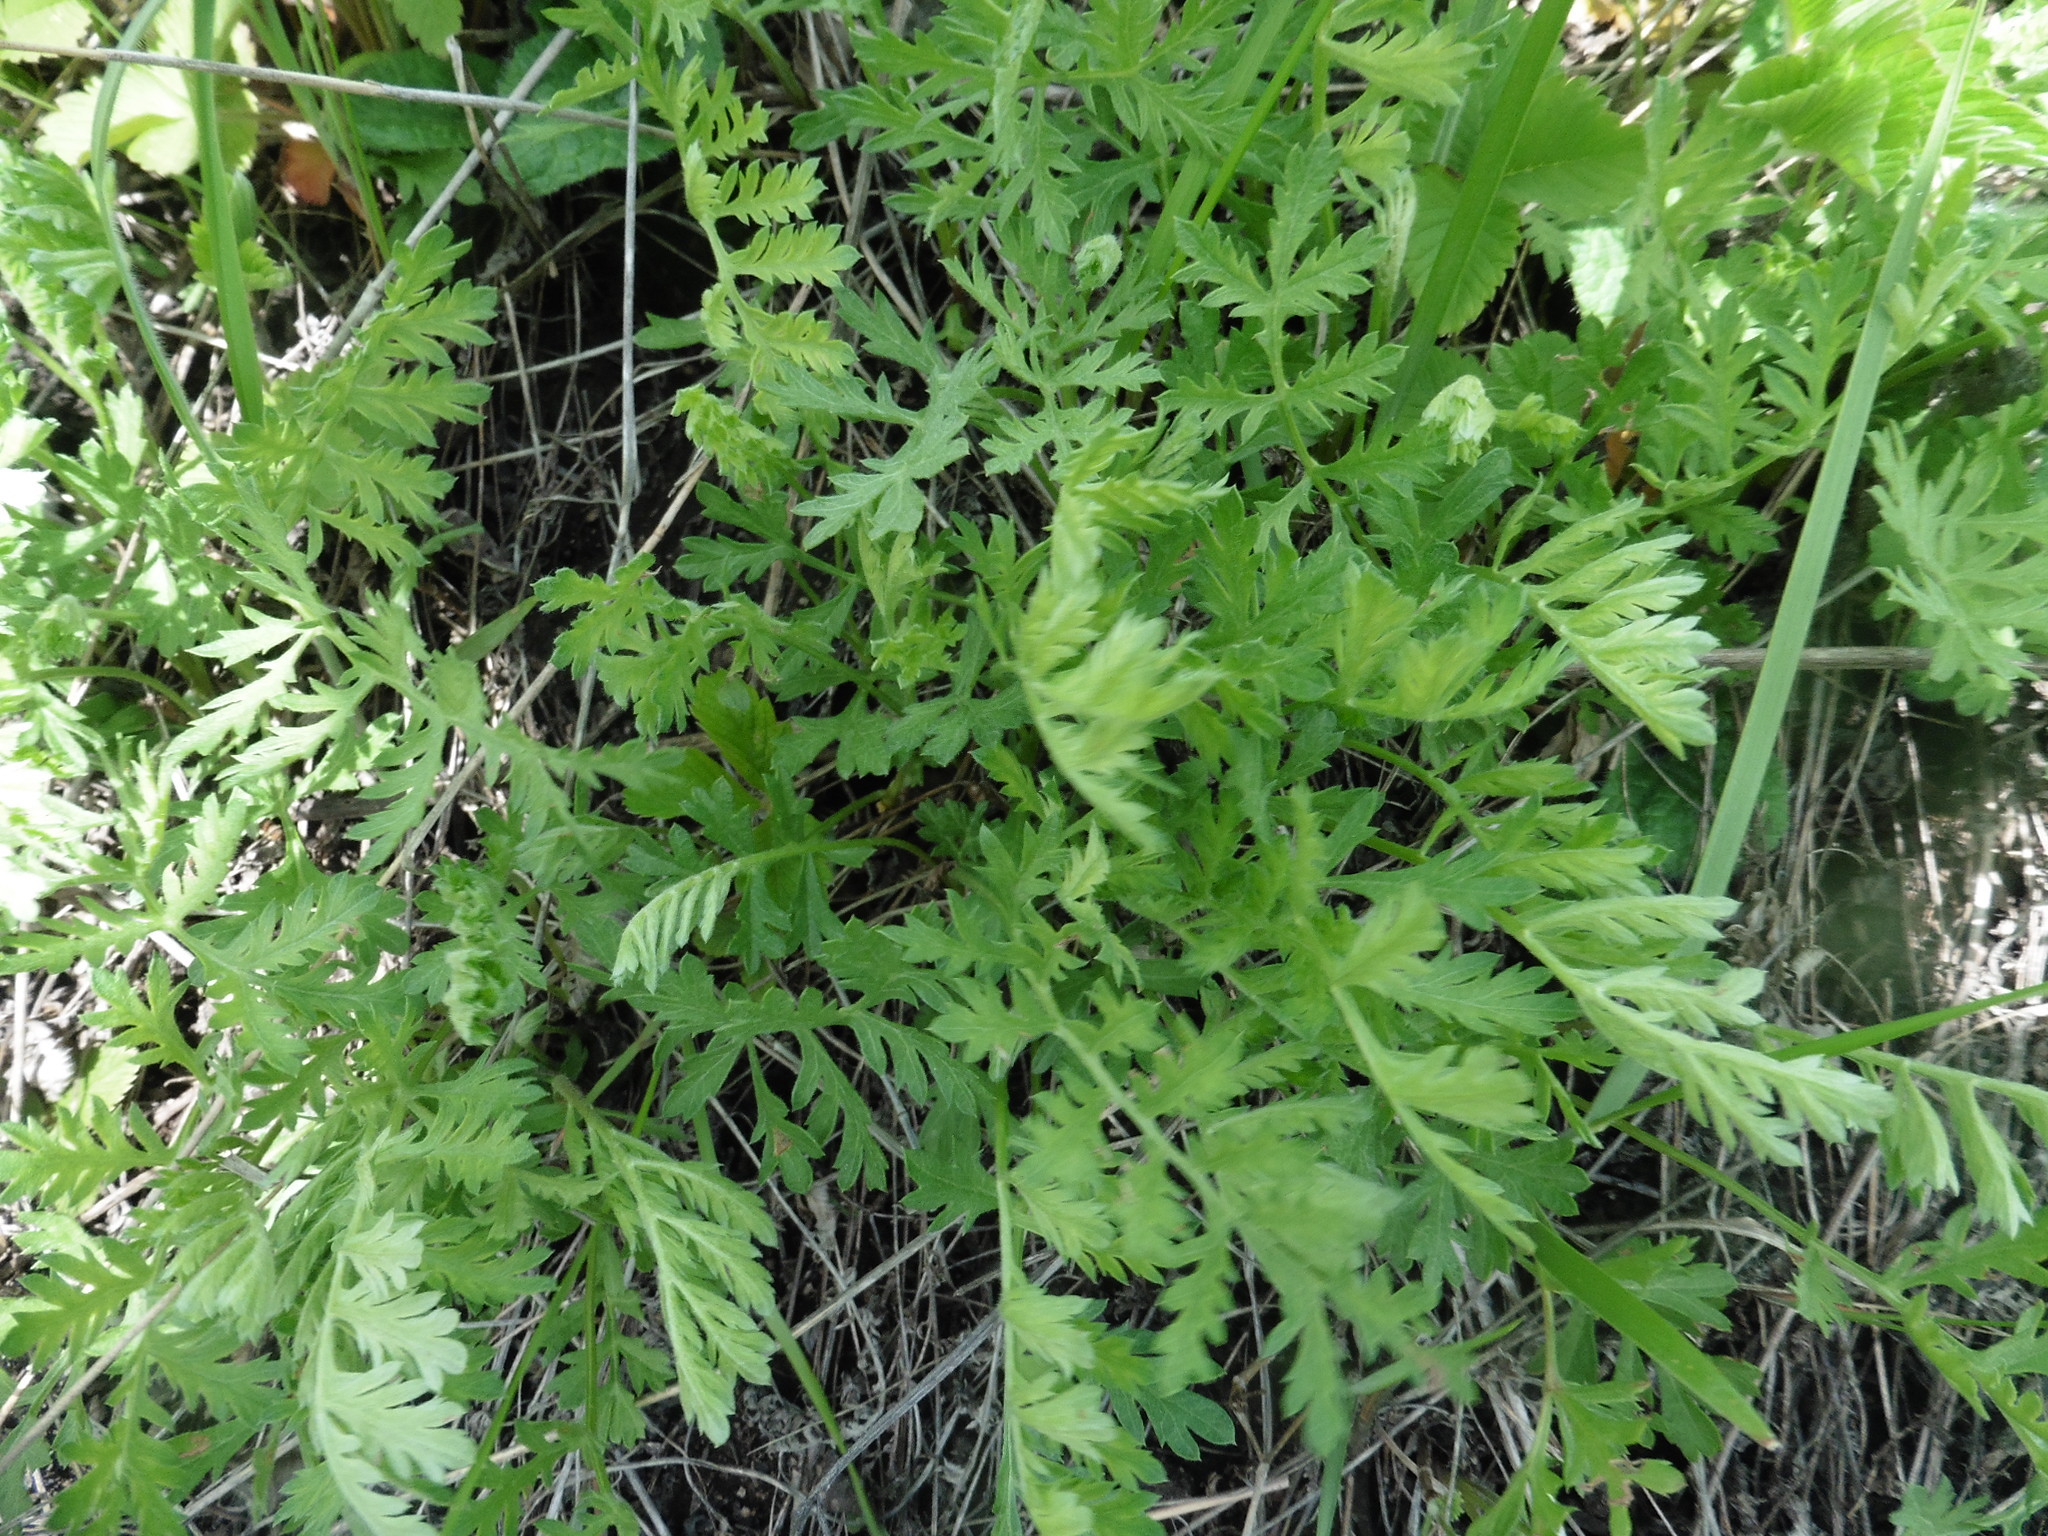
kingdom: Plantae
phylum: Tracheophyta
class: Magnoliopsida
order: Asterales
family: Asteraceae
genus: Artemisia
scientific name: Artemisia latifolia
